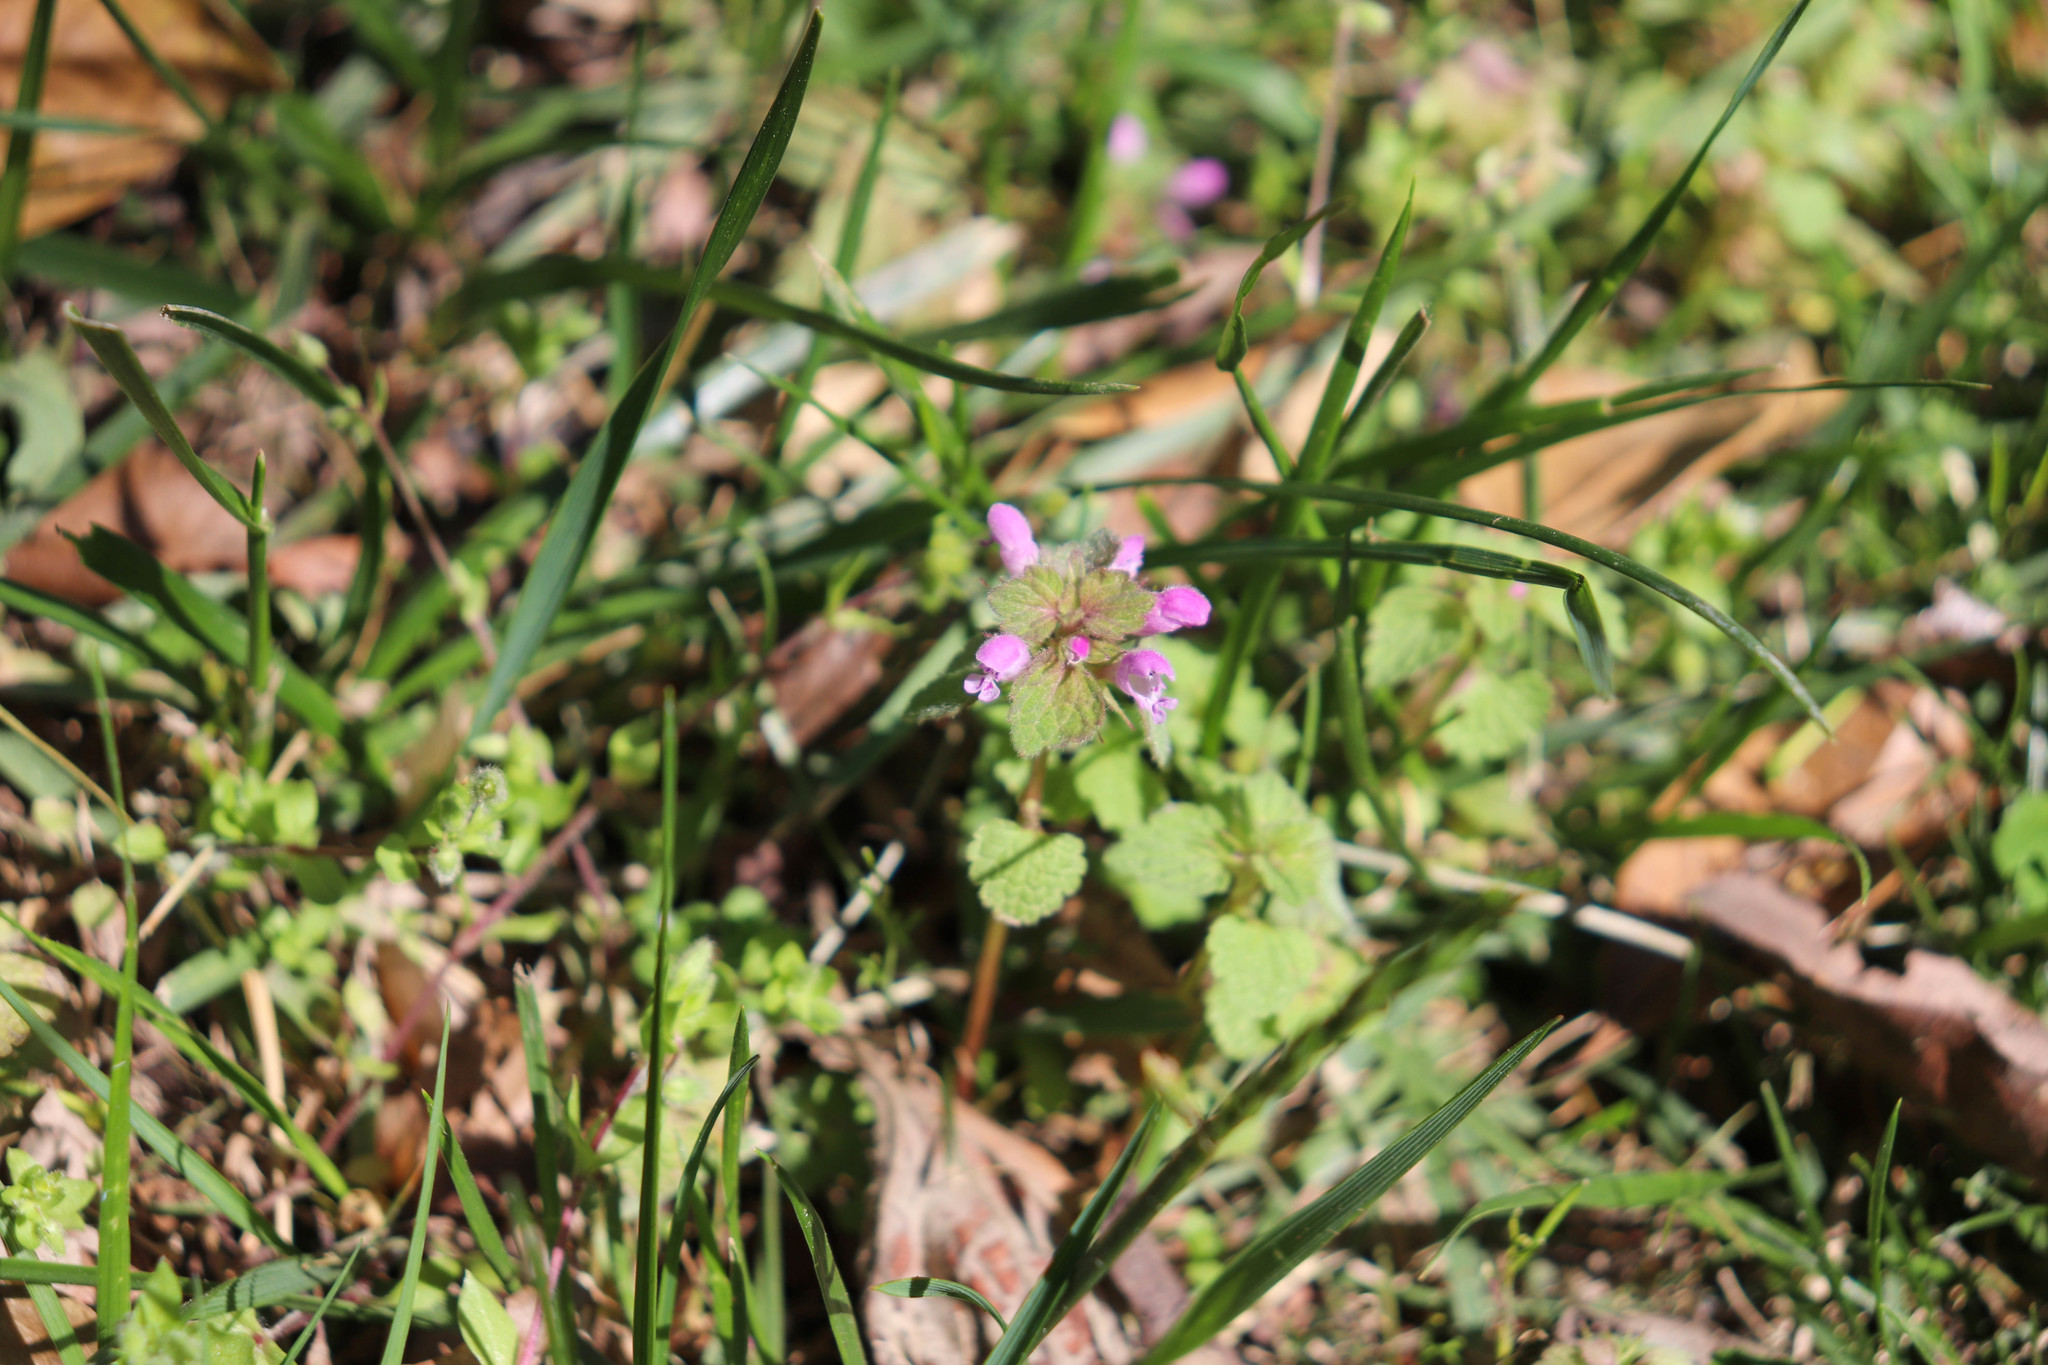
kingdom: Plantae
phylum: Tracheophyta
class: Magnoliopsida
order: Lamiales
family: Lamiaceae
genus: Lamium
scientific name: Lamium purpureum
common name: Red dead-nettle
